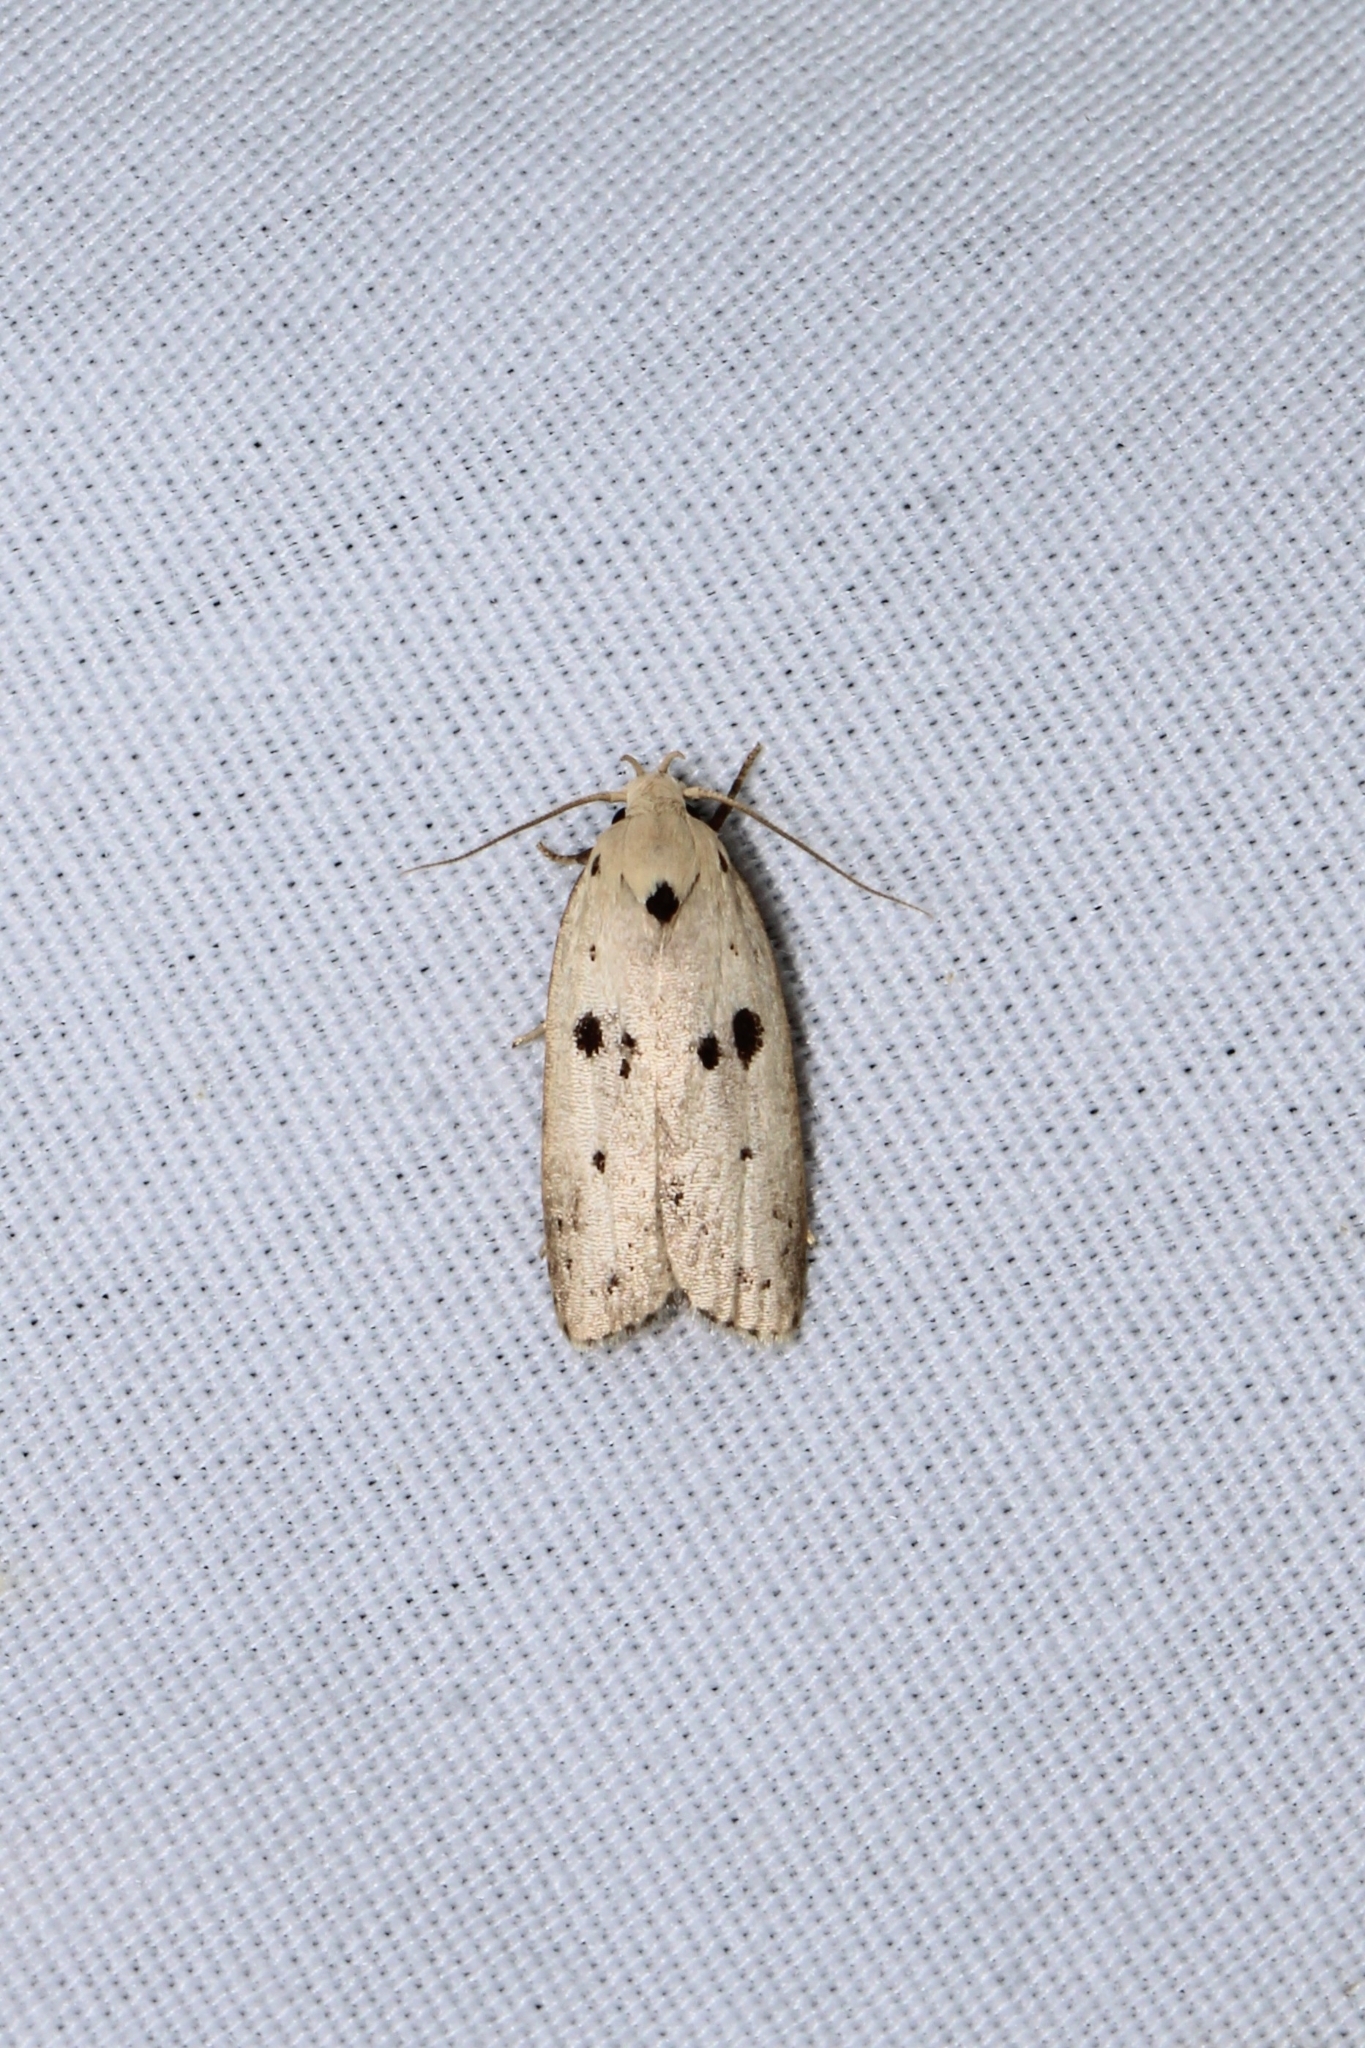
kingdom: Animalia
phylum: Arthropoda
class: Insecta
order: Lepidoptera
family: Peleopodidae
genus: Scythropiodes
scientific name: Scythropiodes issikii
